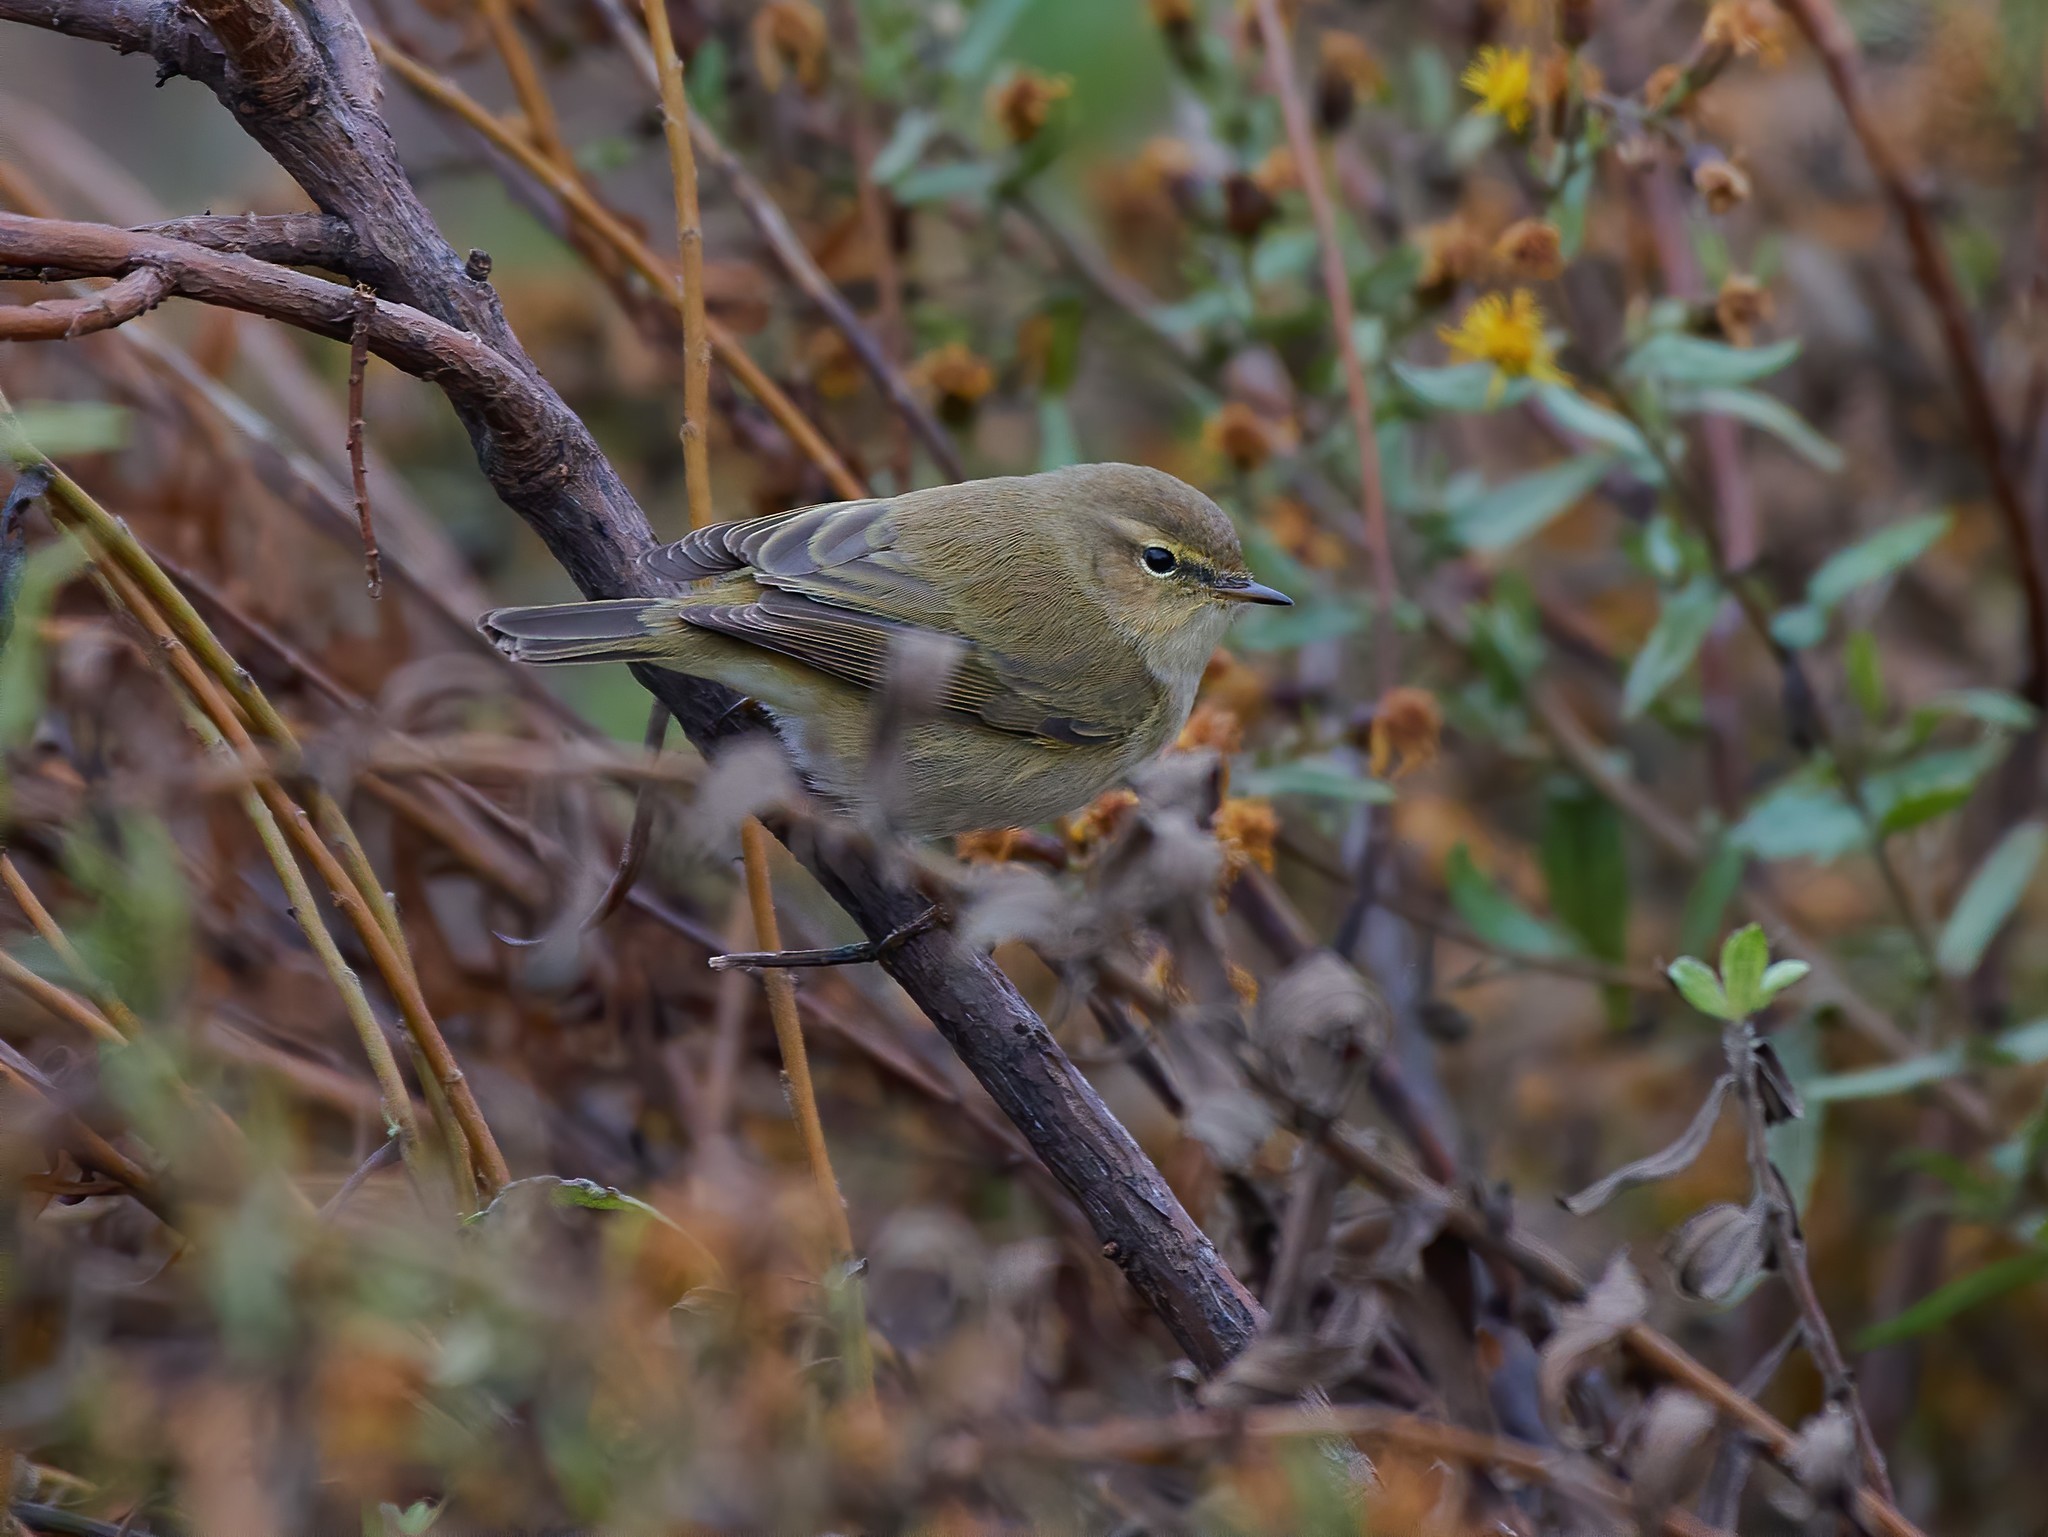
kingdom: Animalia
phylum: Chordata
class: Aves
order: Passeriformes
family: Phylloscopidae
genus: Phylloscopus
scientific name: Phylloscopus collybita
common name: Common chiffchaff
